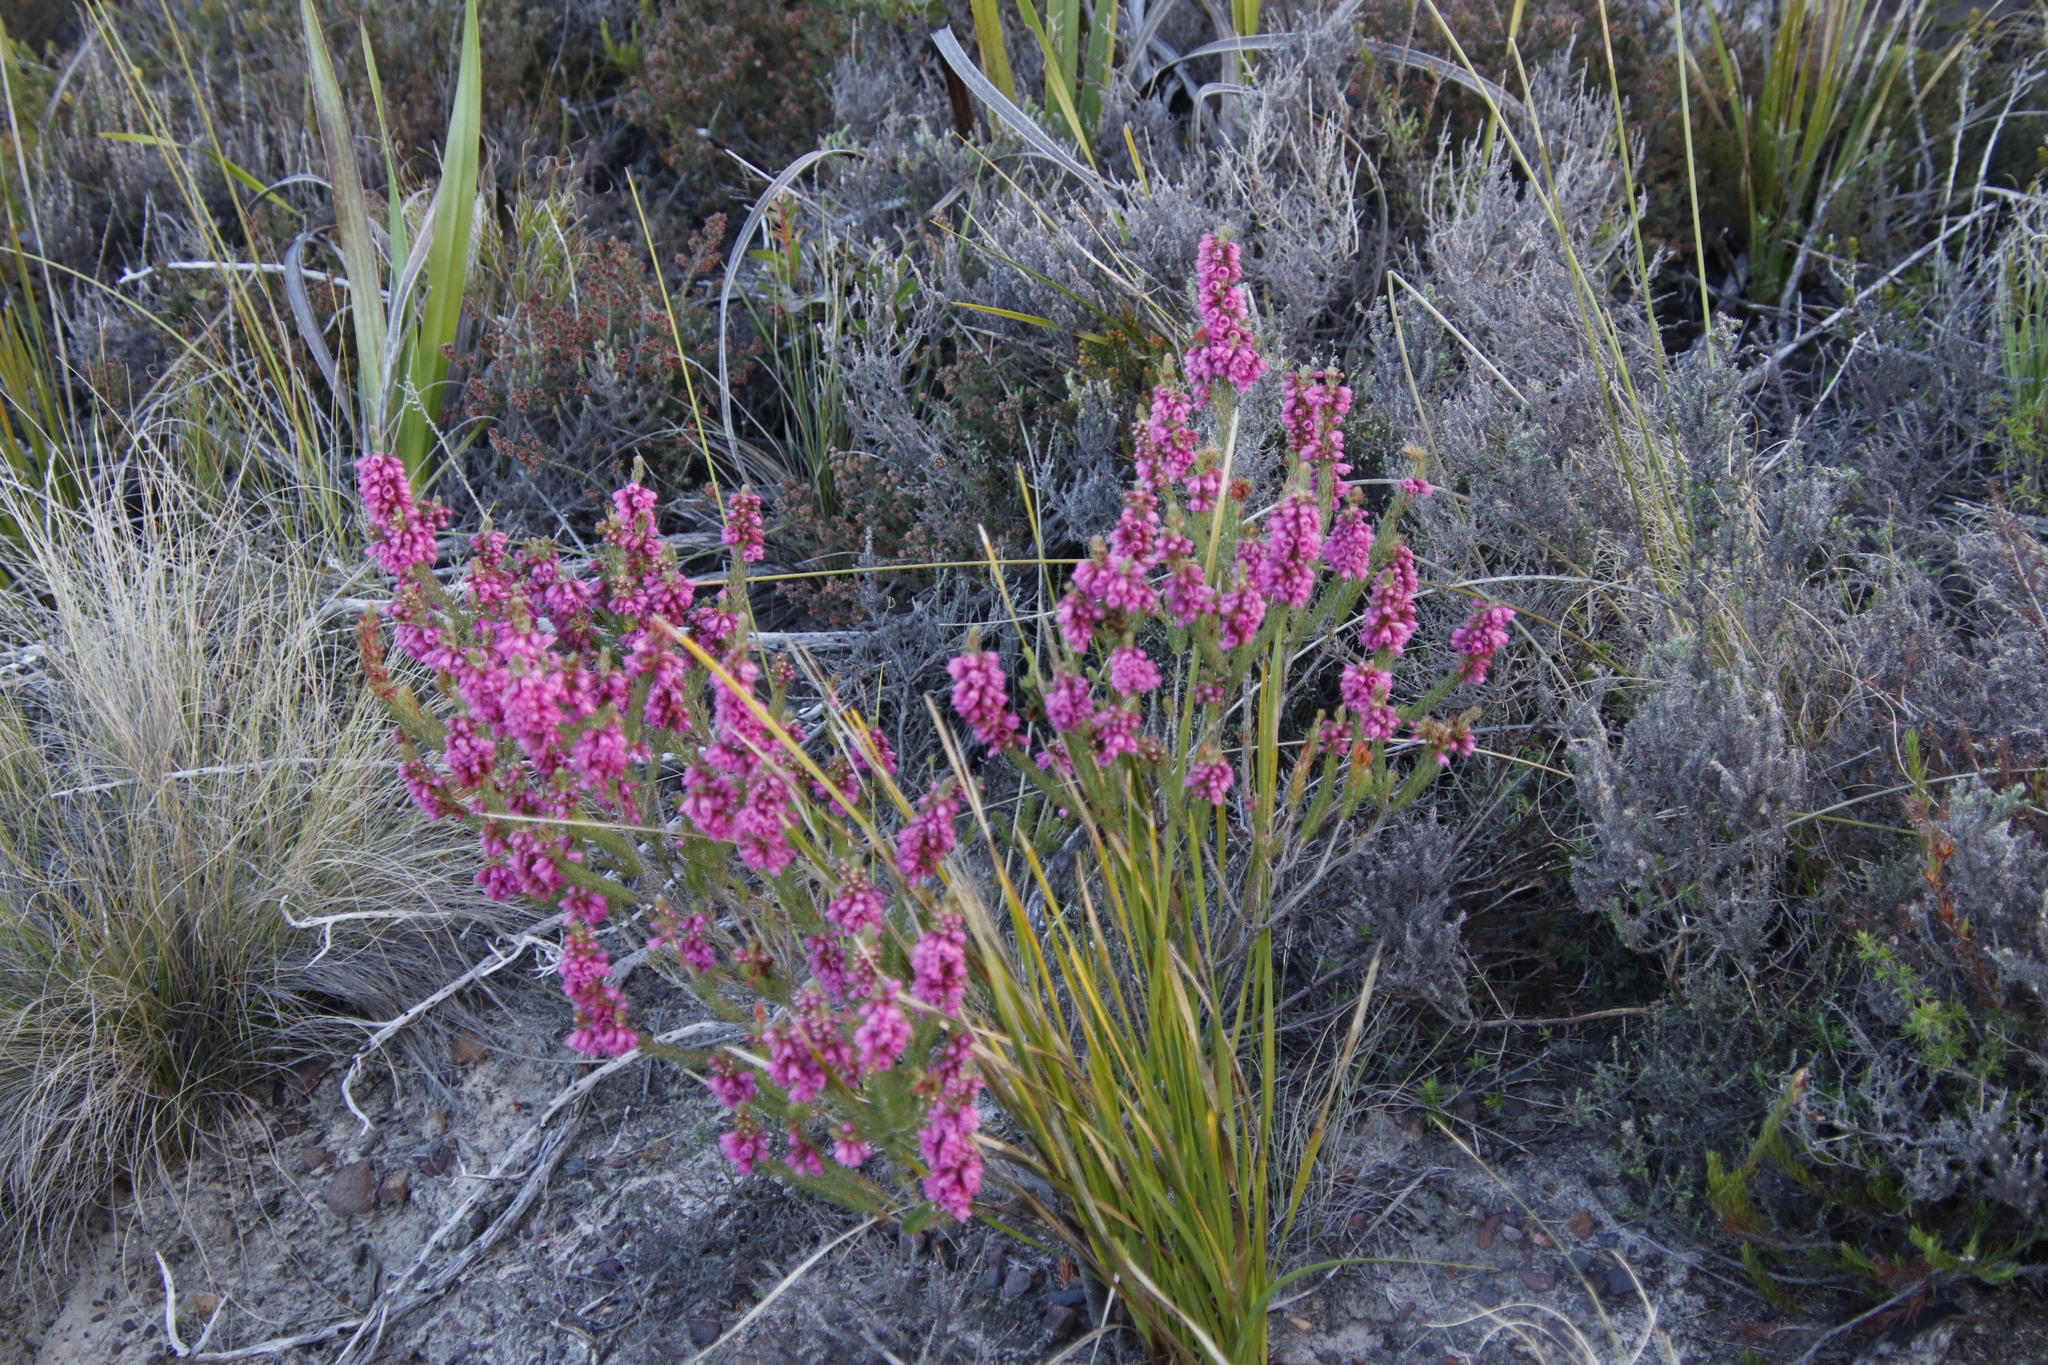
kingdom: Plantae
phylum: Tracheophyta
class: Magnoliopsida
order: Ericales
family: Ericaceae
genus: Erica
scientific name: Erica abietina
